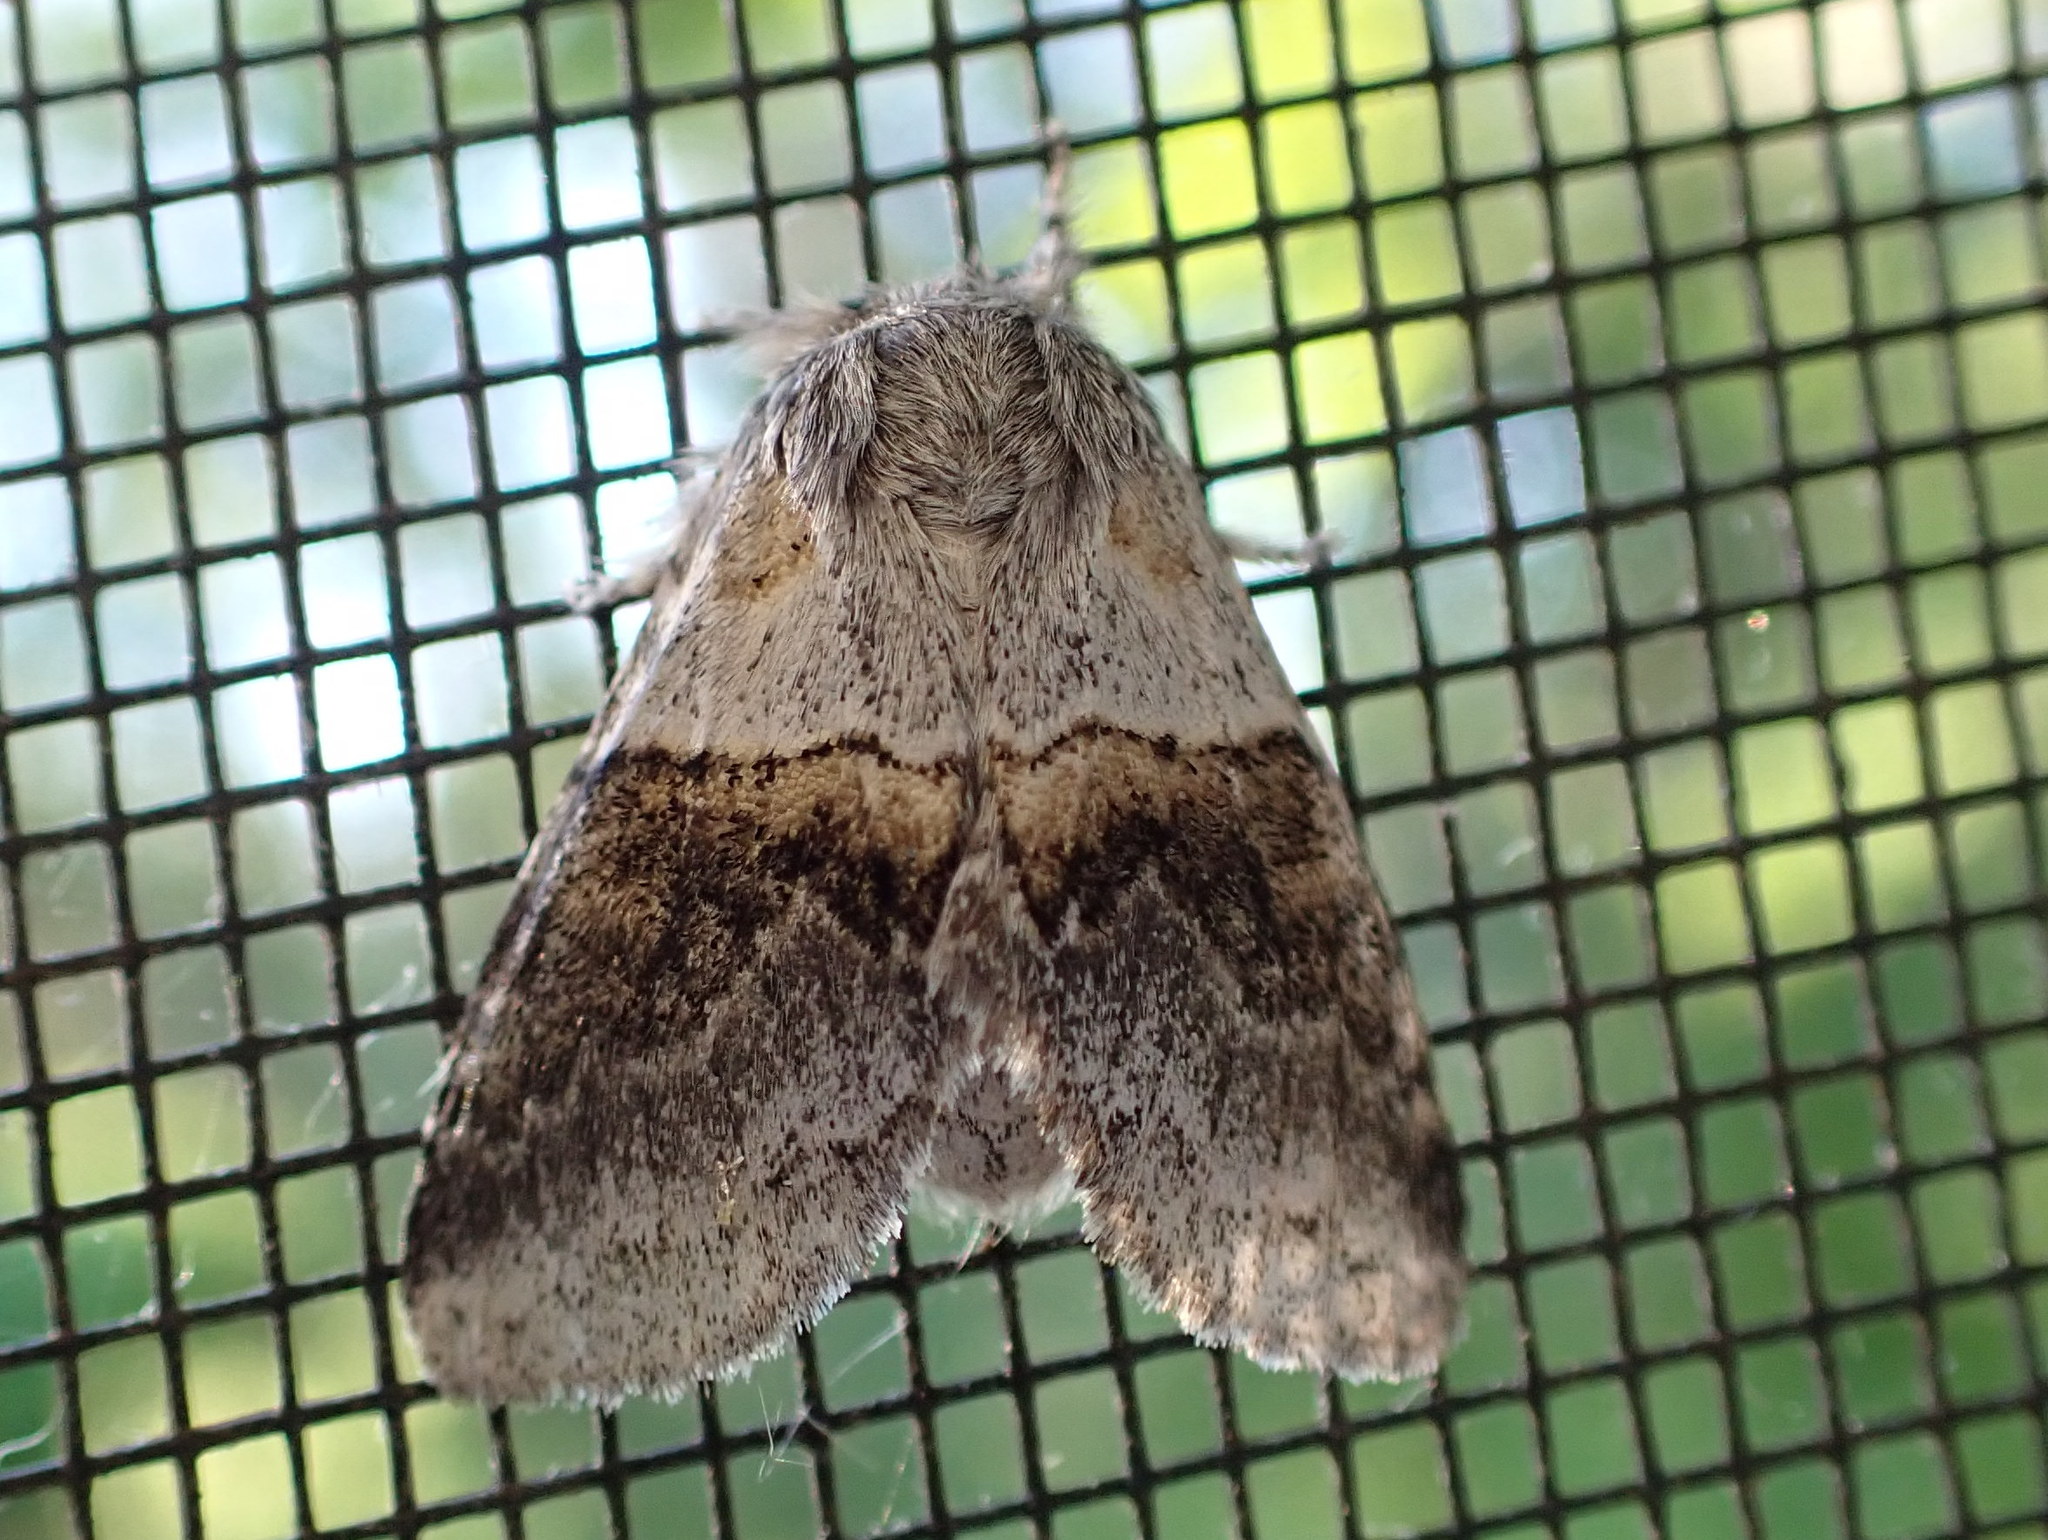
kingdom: Animalia
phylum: Arthropoda
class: Insecta
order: Lepidoptera
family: Notodontidae
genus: Gluphisia
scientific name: Gluphisia septentrionis
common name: Common gluphisia
